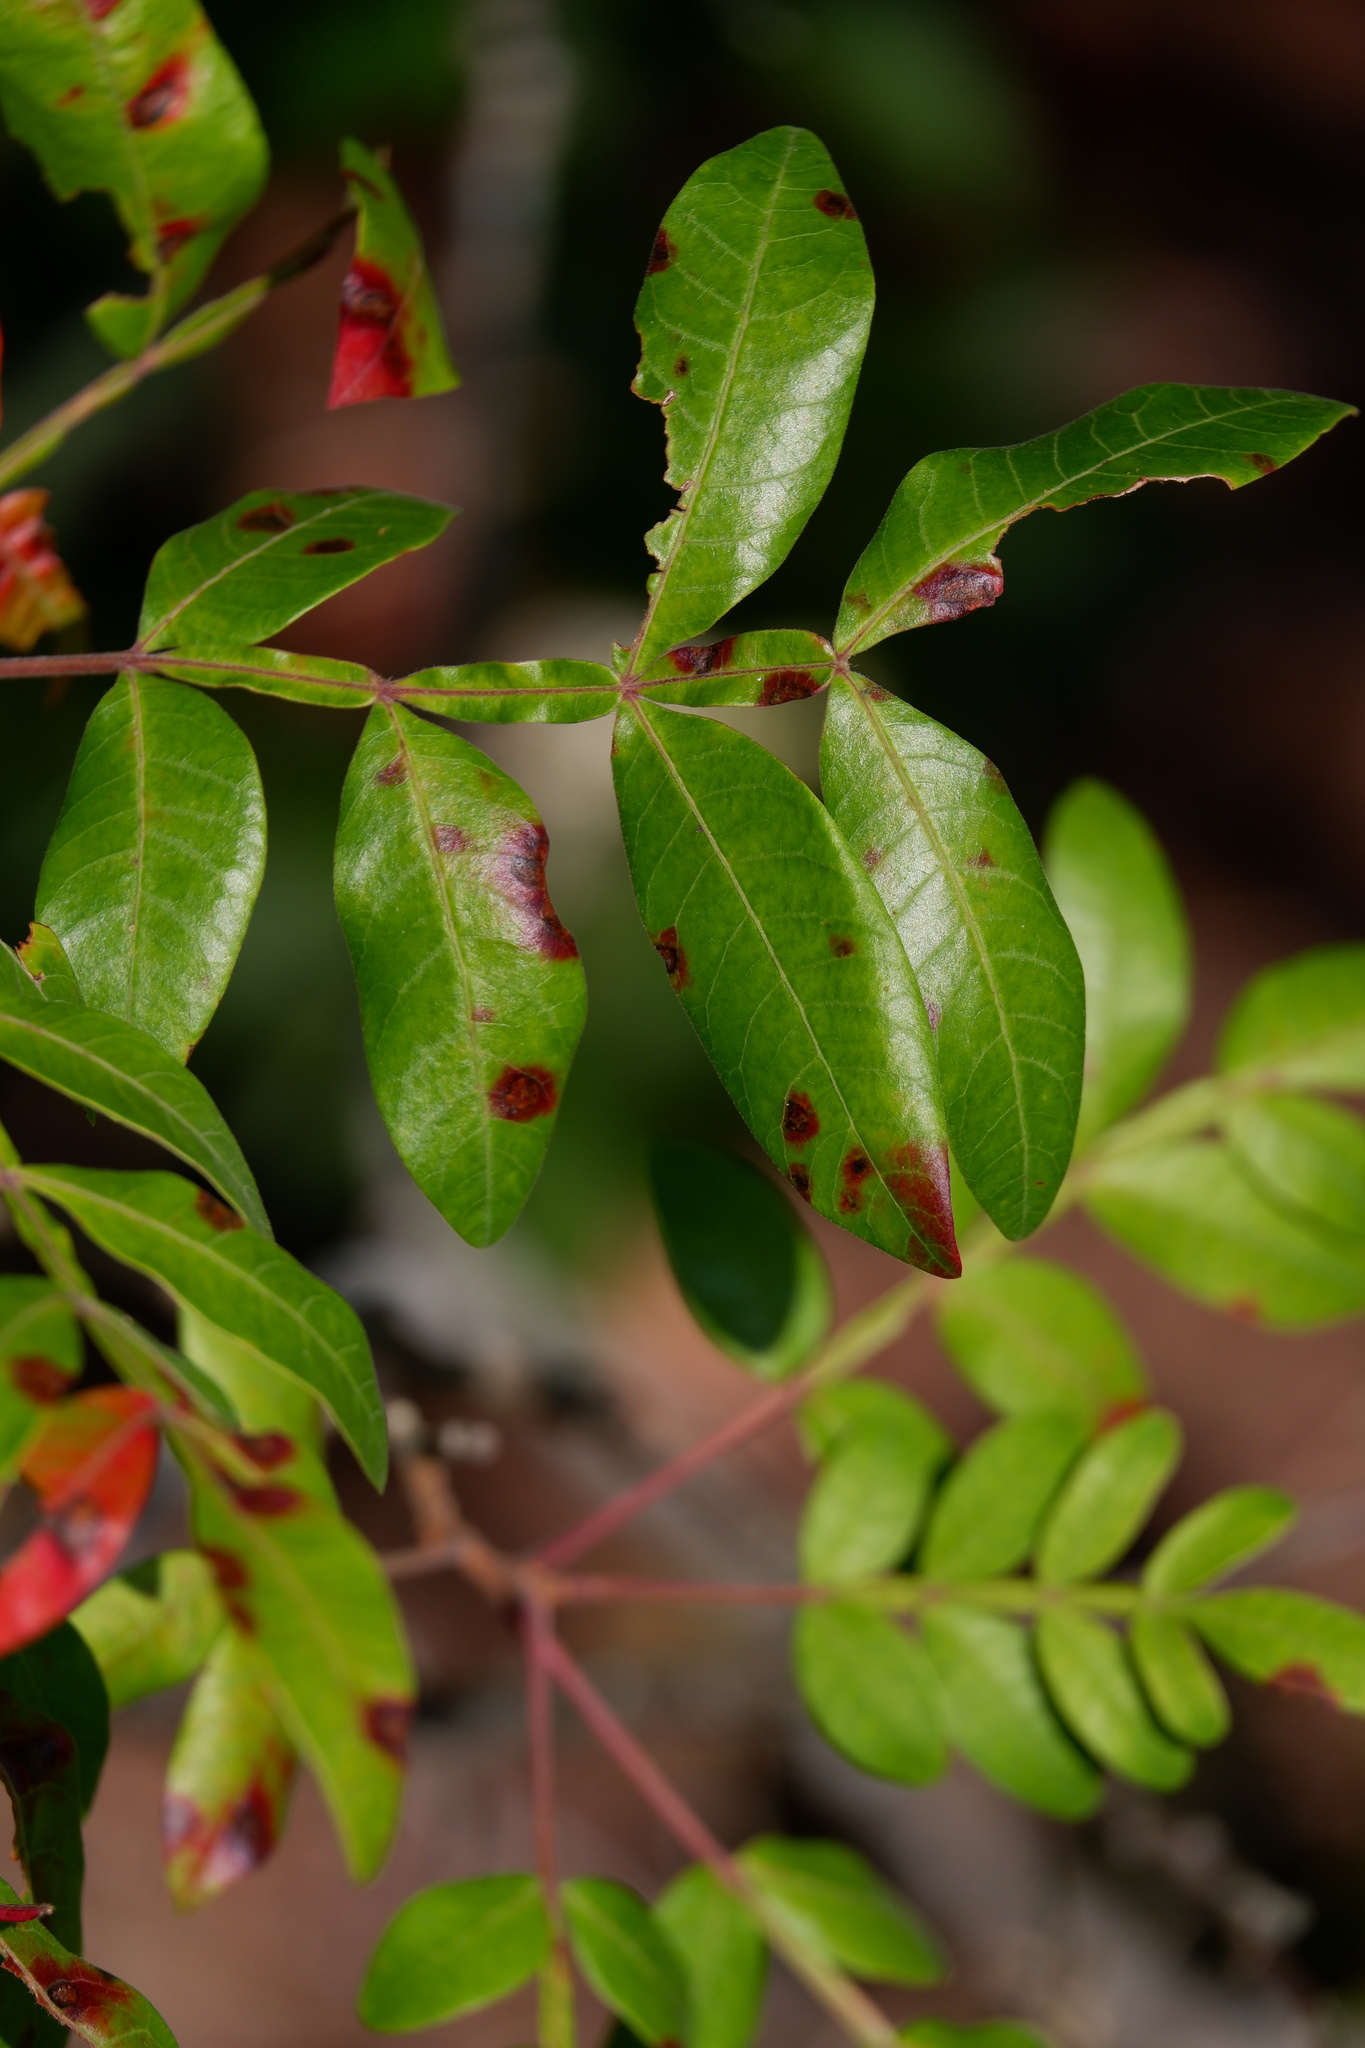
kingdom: Plantae
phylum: Tracheophyta
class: Magnoliopsida
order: Sapindales
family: Anacardiaceae
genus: Rhus
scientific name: Rhus copallina
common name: Shining sumac
